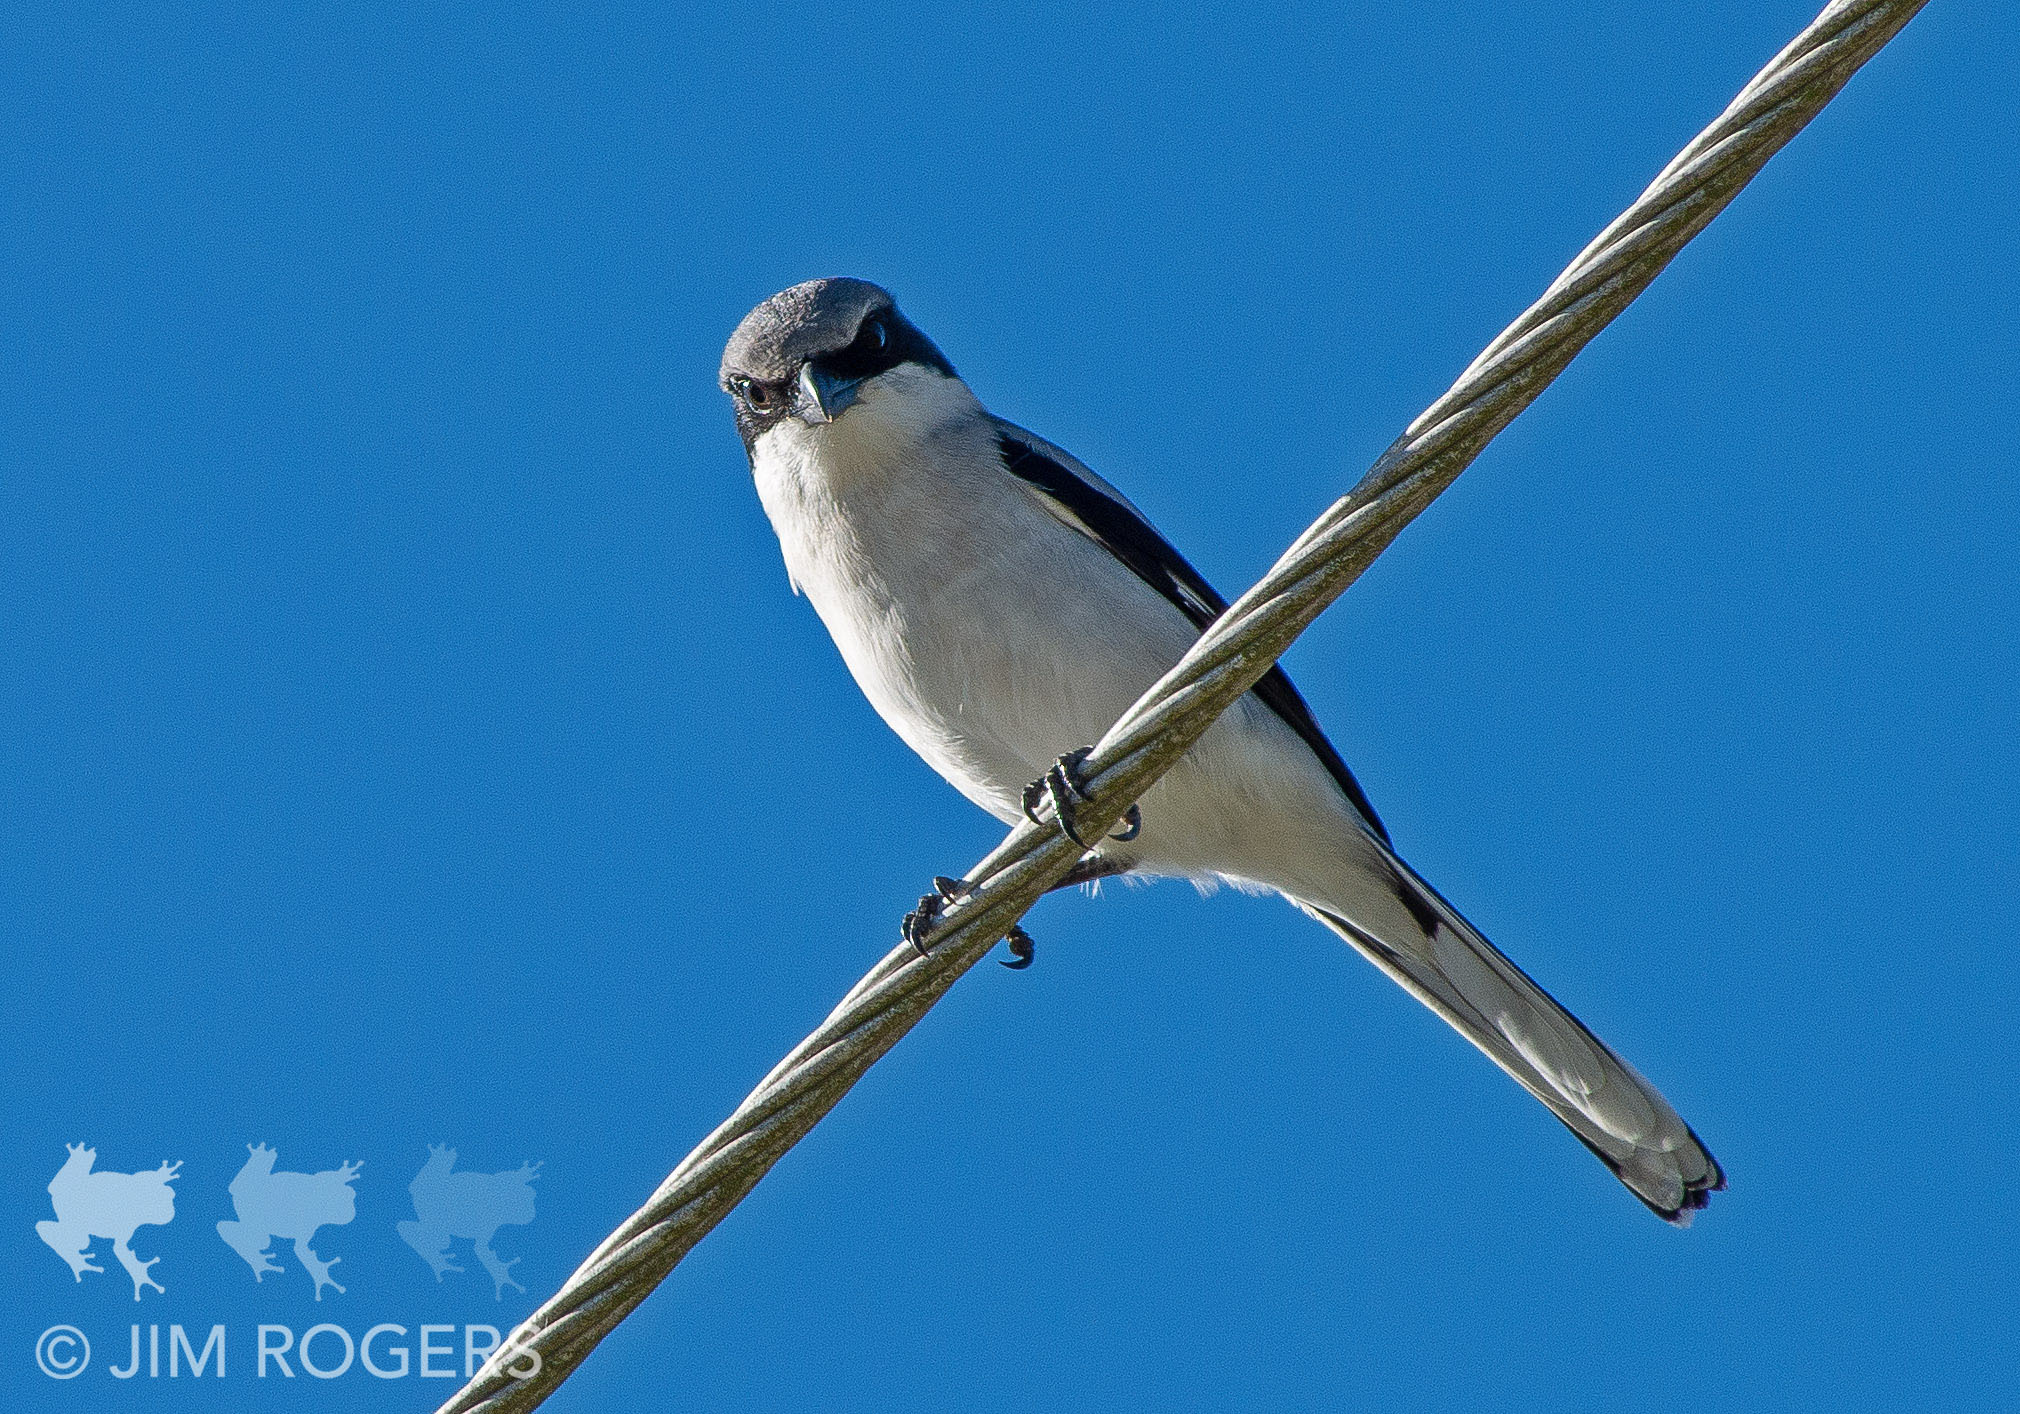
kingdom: Animalia
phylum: Chordata
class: Aves
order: Passeriformes
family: Laniidae
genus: Lanius
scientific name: Lanius ludovicianus
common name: Loggerhead shrike
